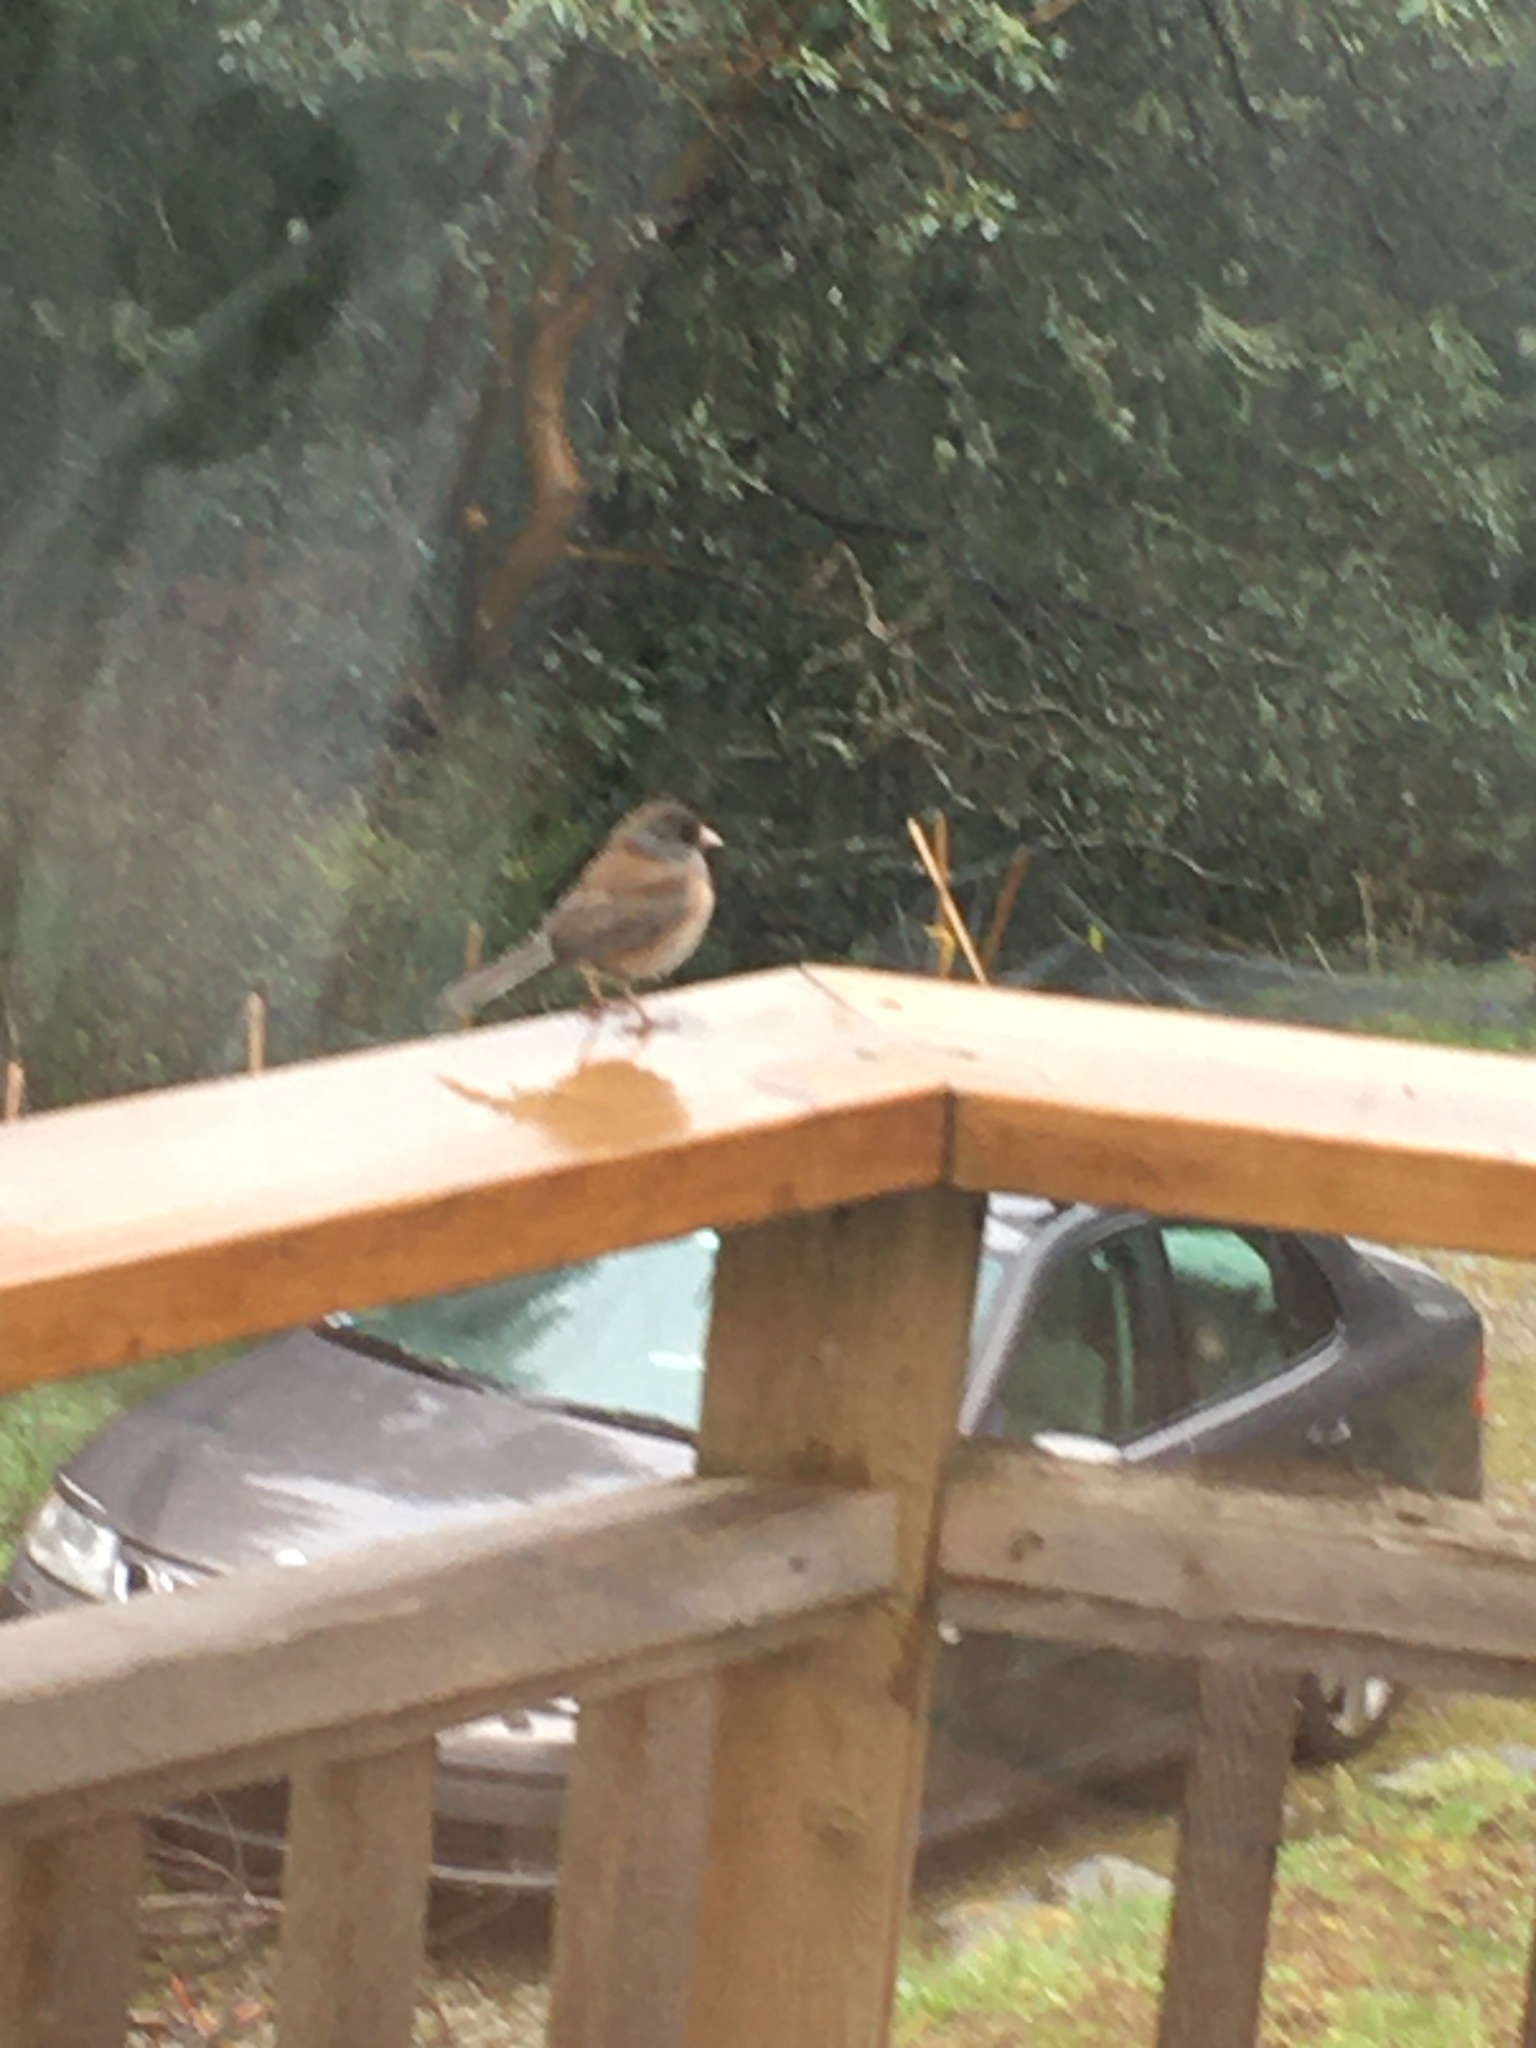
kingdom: Animalia
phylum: Chordata
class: Aves
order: Passeriformes
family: Passerellidae
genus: Junco
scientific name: Junco hyemalis
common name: Dark-eyed junco
